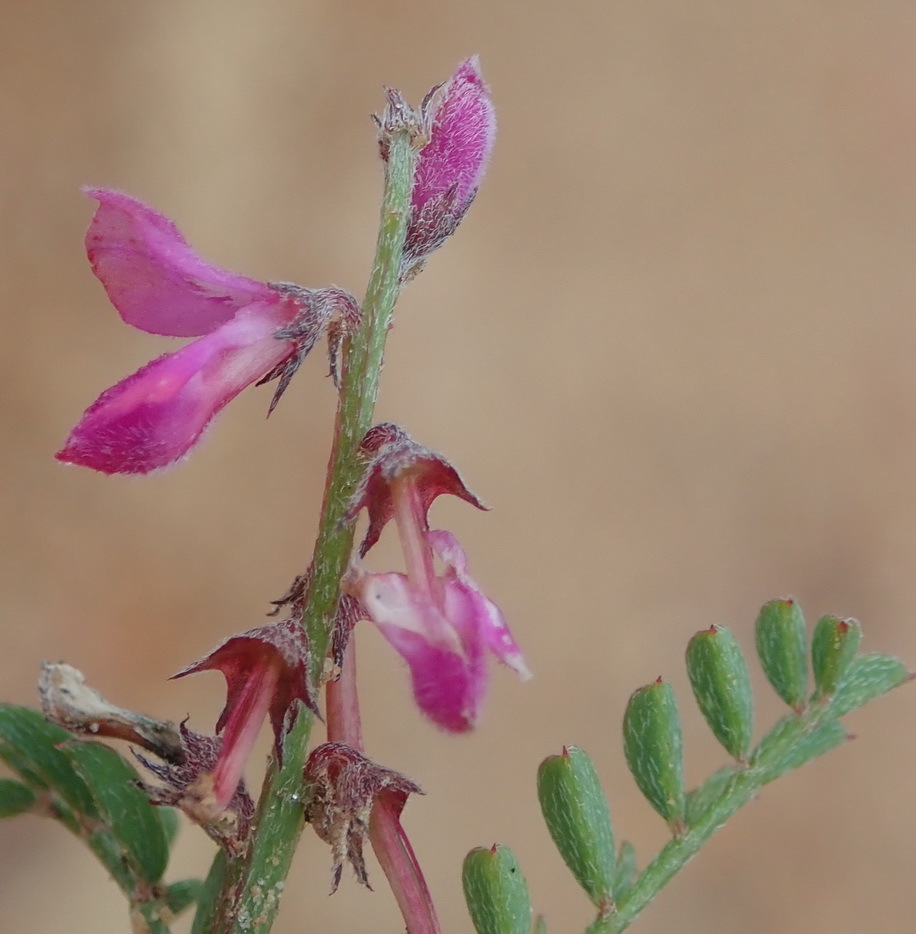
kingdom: Plantae
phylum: Tracheophyta
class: Magnoliopsida
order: Fabales
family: Fabaceae
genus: Indigofera
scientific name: Indigofera declinata
